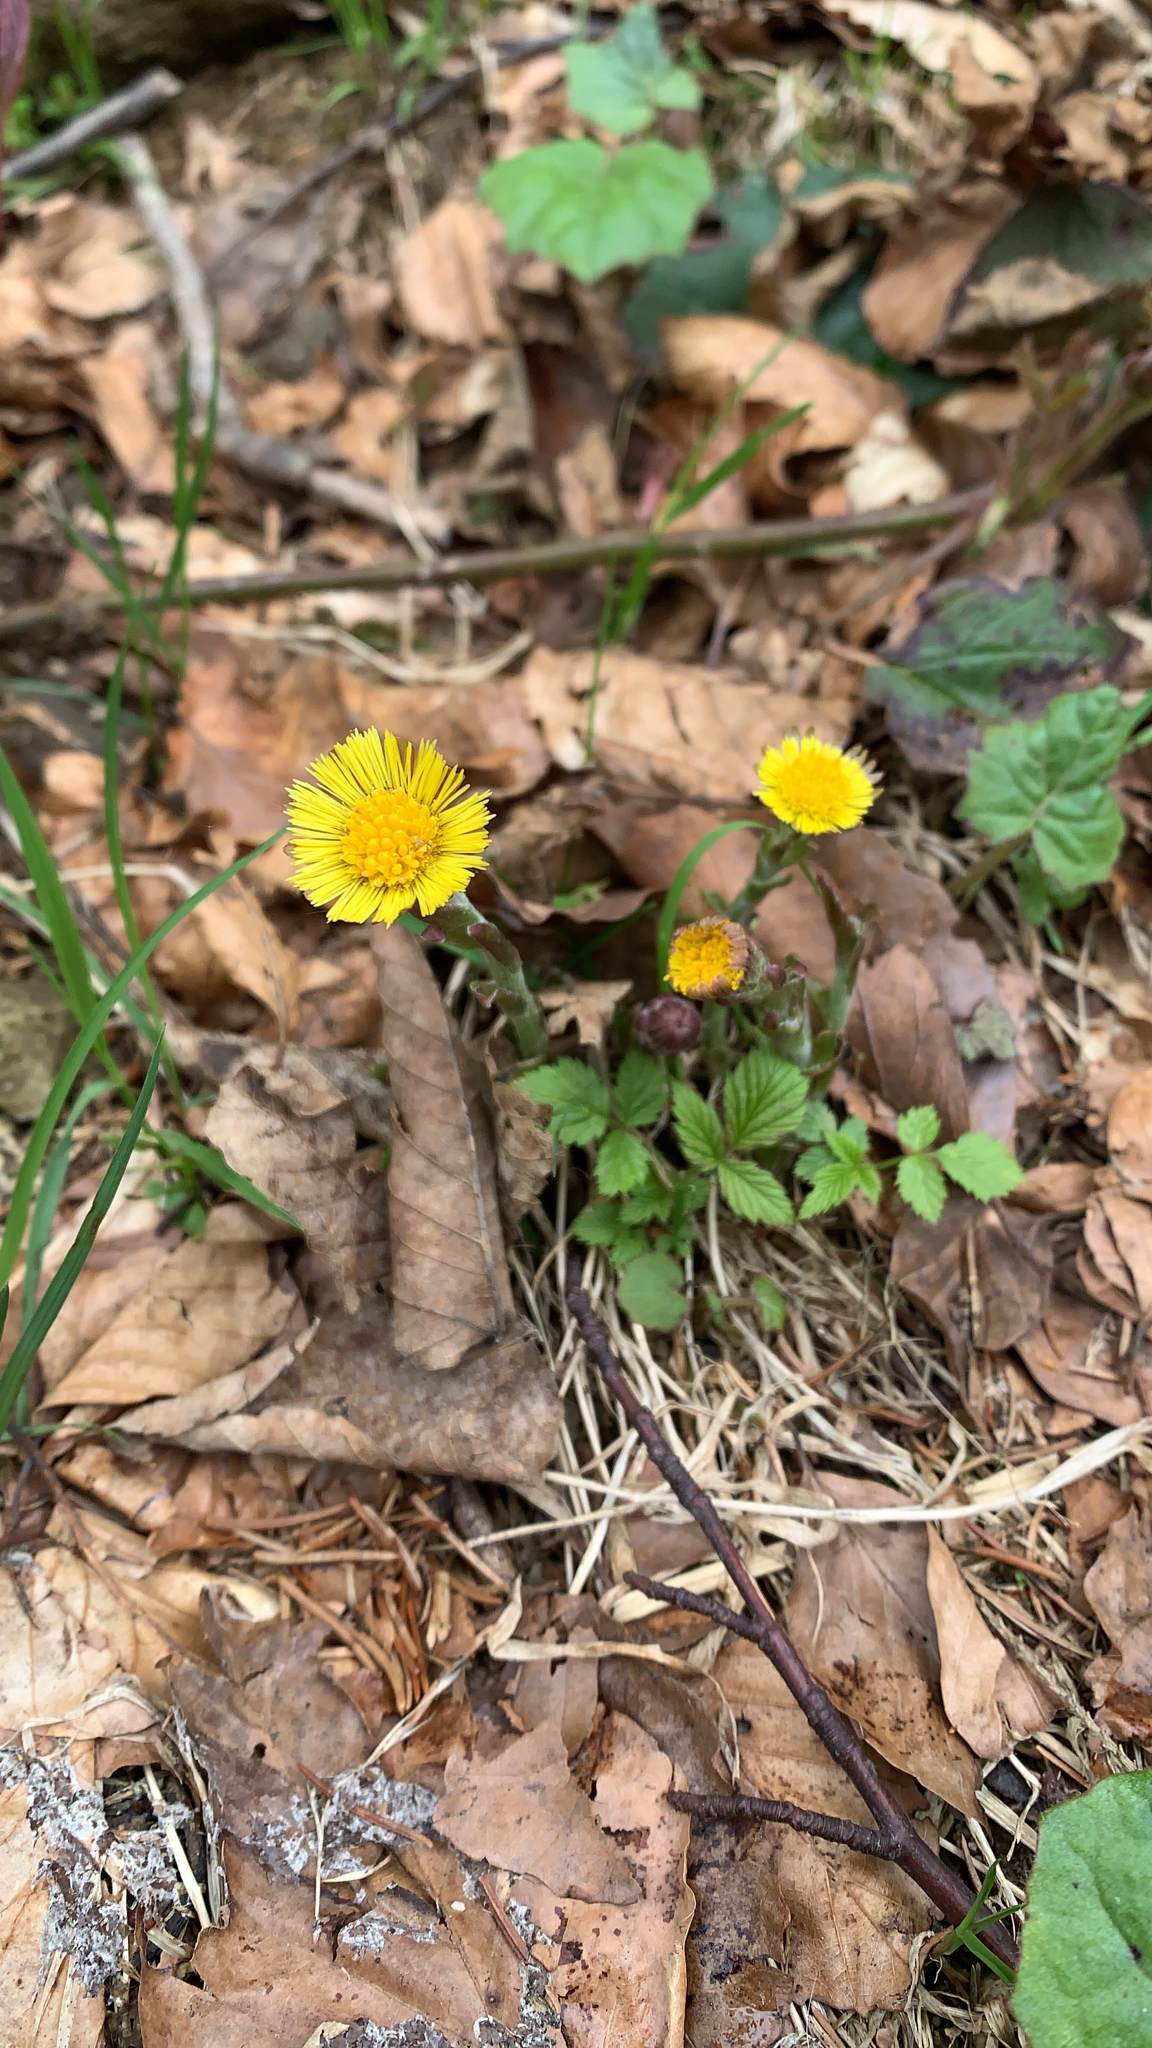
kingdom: Plantae
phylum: Tracheophyta
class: Magnoliopsida
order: Asterales
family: Asteraceae
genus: Tussilago
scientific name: Tussilago farfara
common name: Coltsfoot
